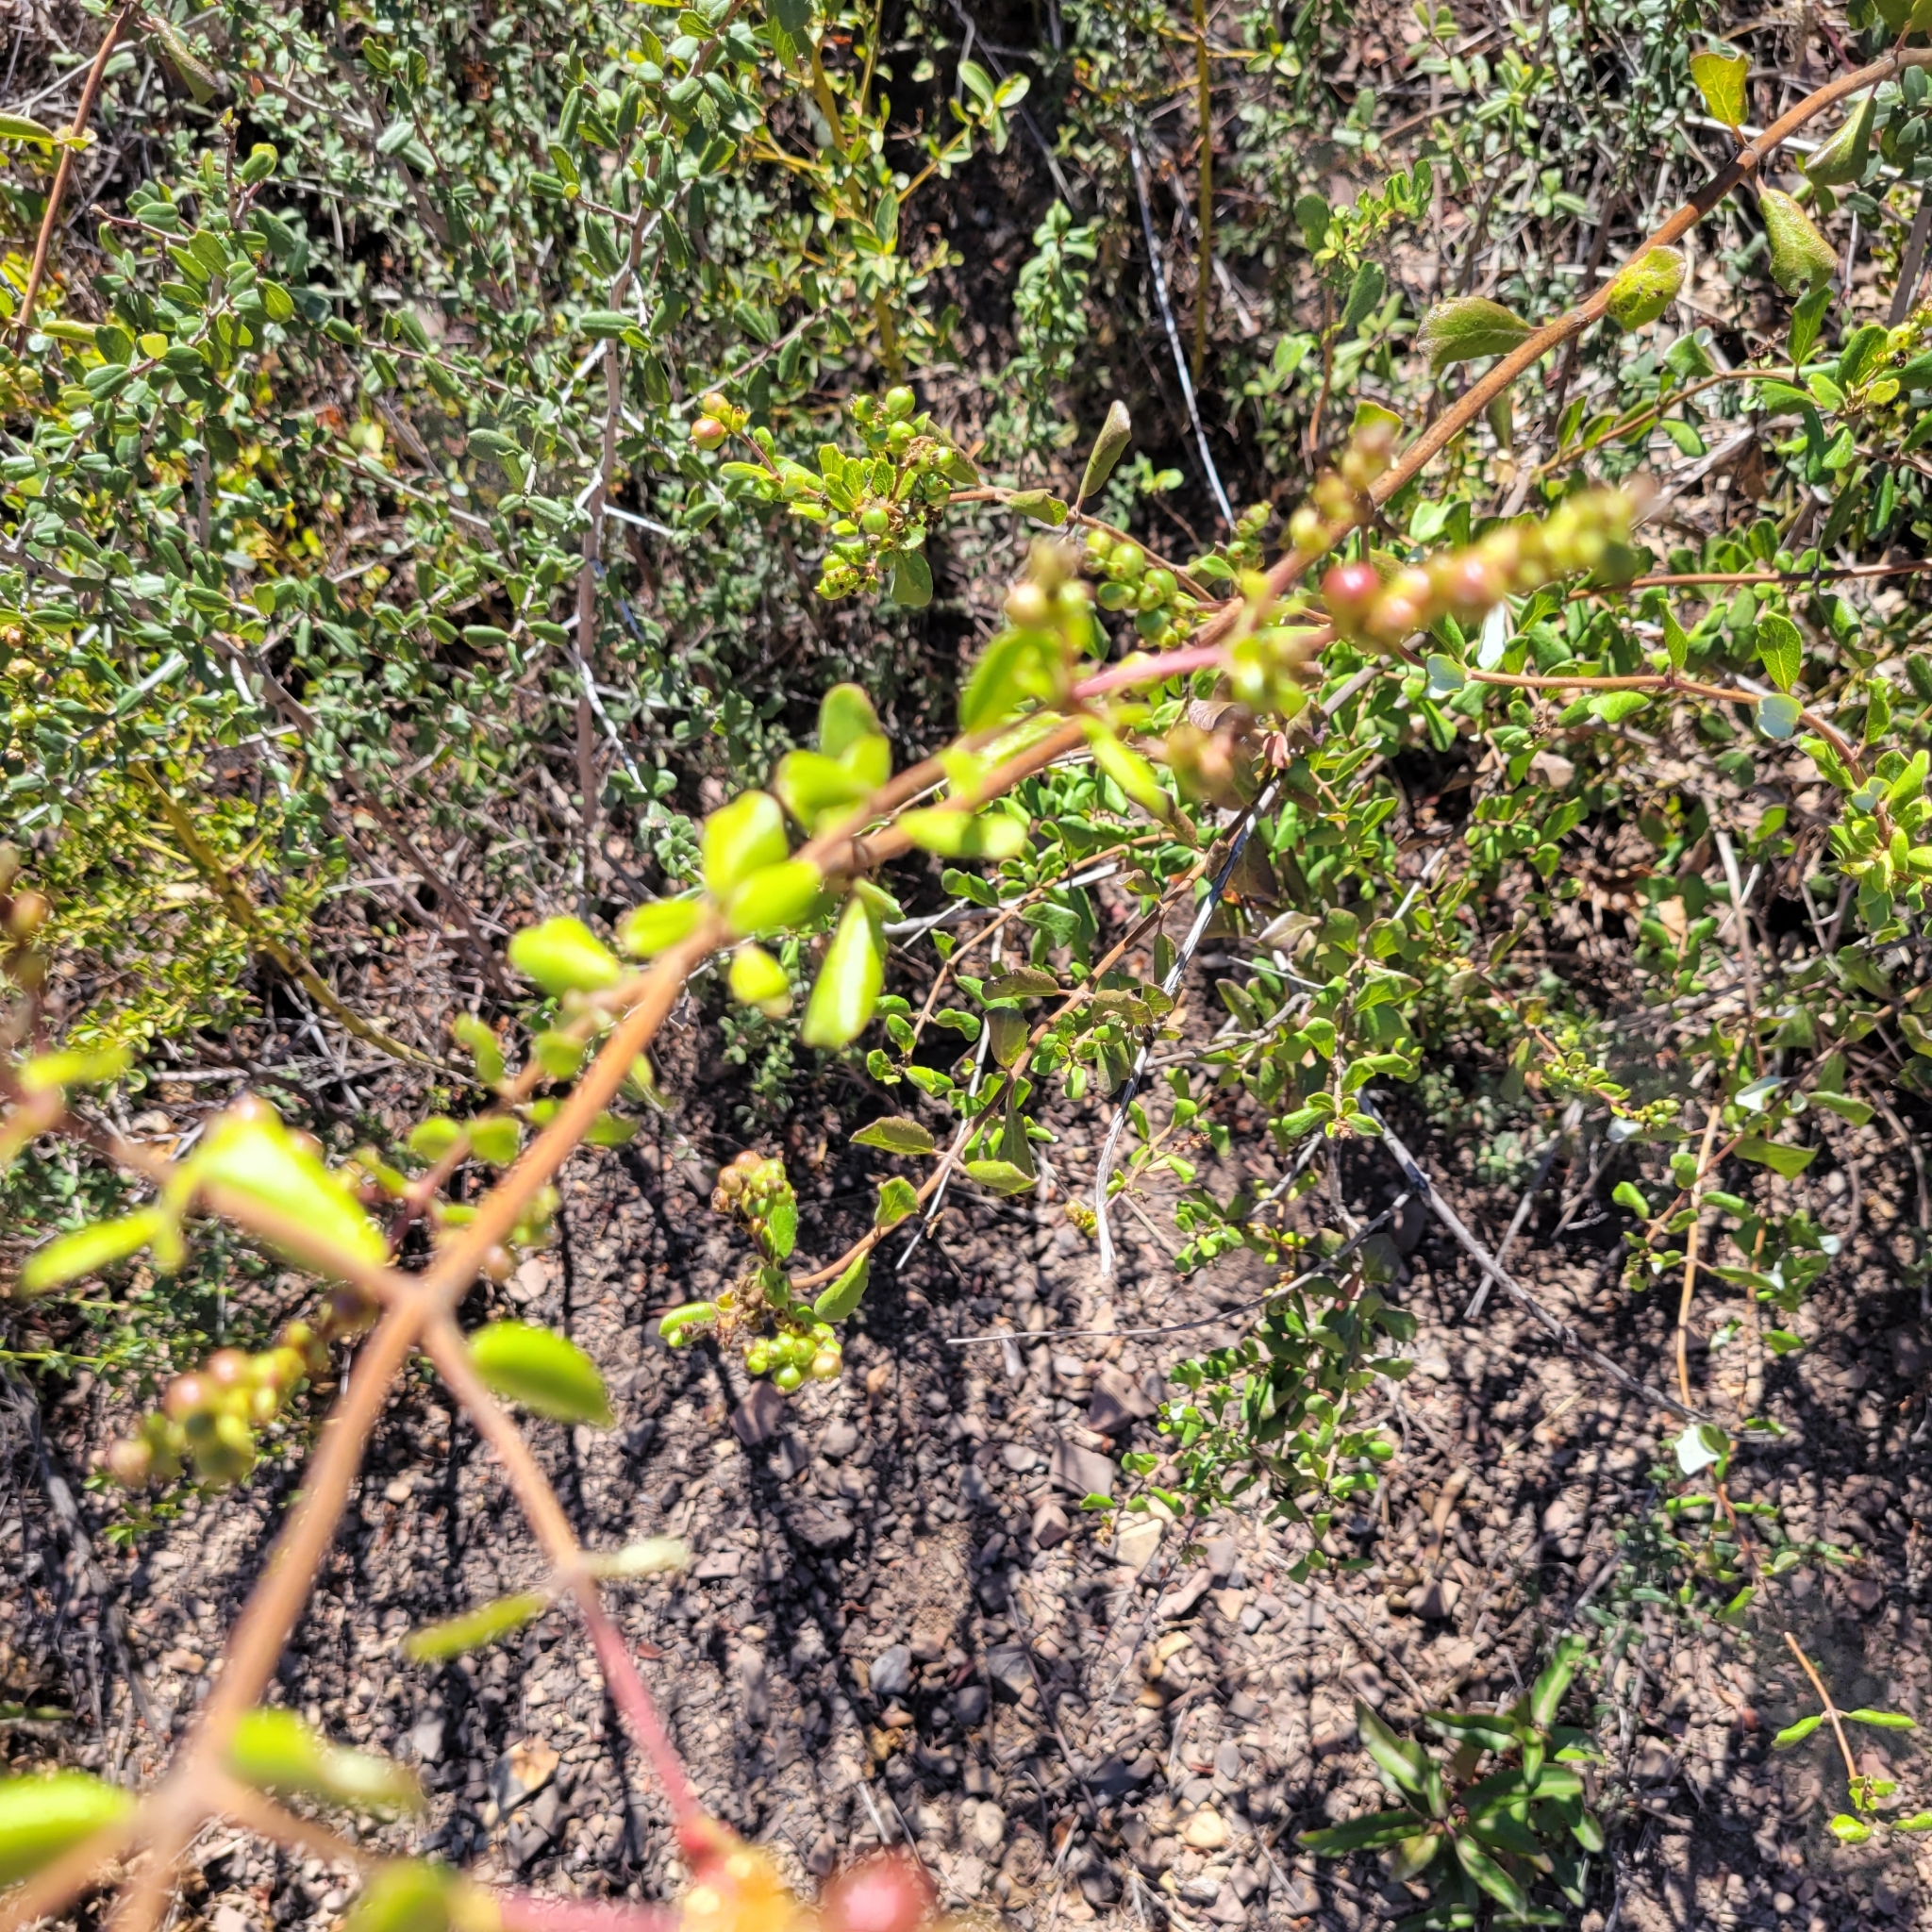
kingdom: Plantae
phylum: Tracheophyta
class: Magnoliopsida
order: Dipsacales
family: Caprifoliaceae
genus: Lonicera
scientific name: Lonicera subspicata
